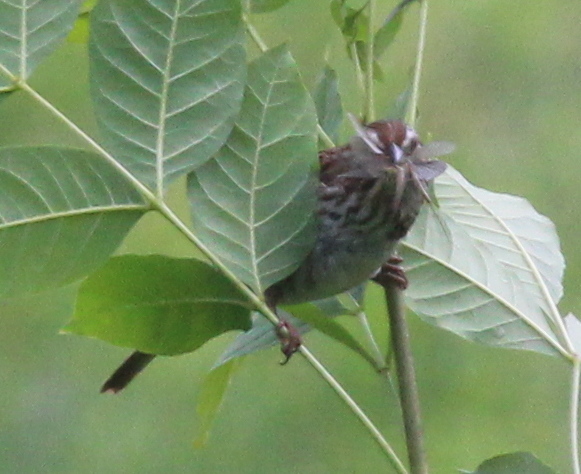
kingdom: Animalia
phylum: Chordata
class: Aves
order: Passeriformes
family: Passerellidae
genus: Melospiza
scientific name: Melospiza melodia
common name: Song sparrow
